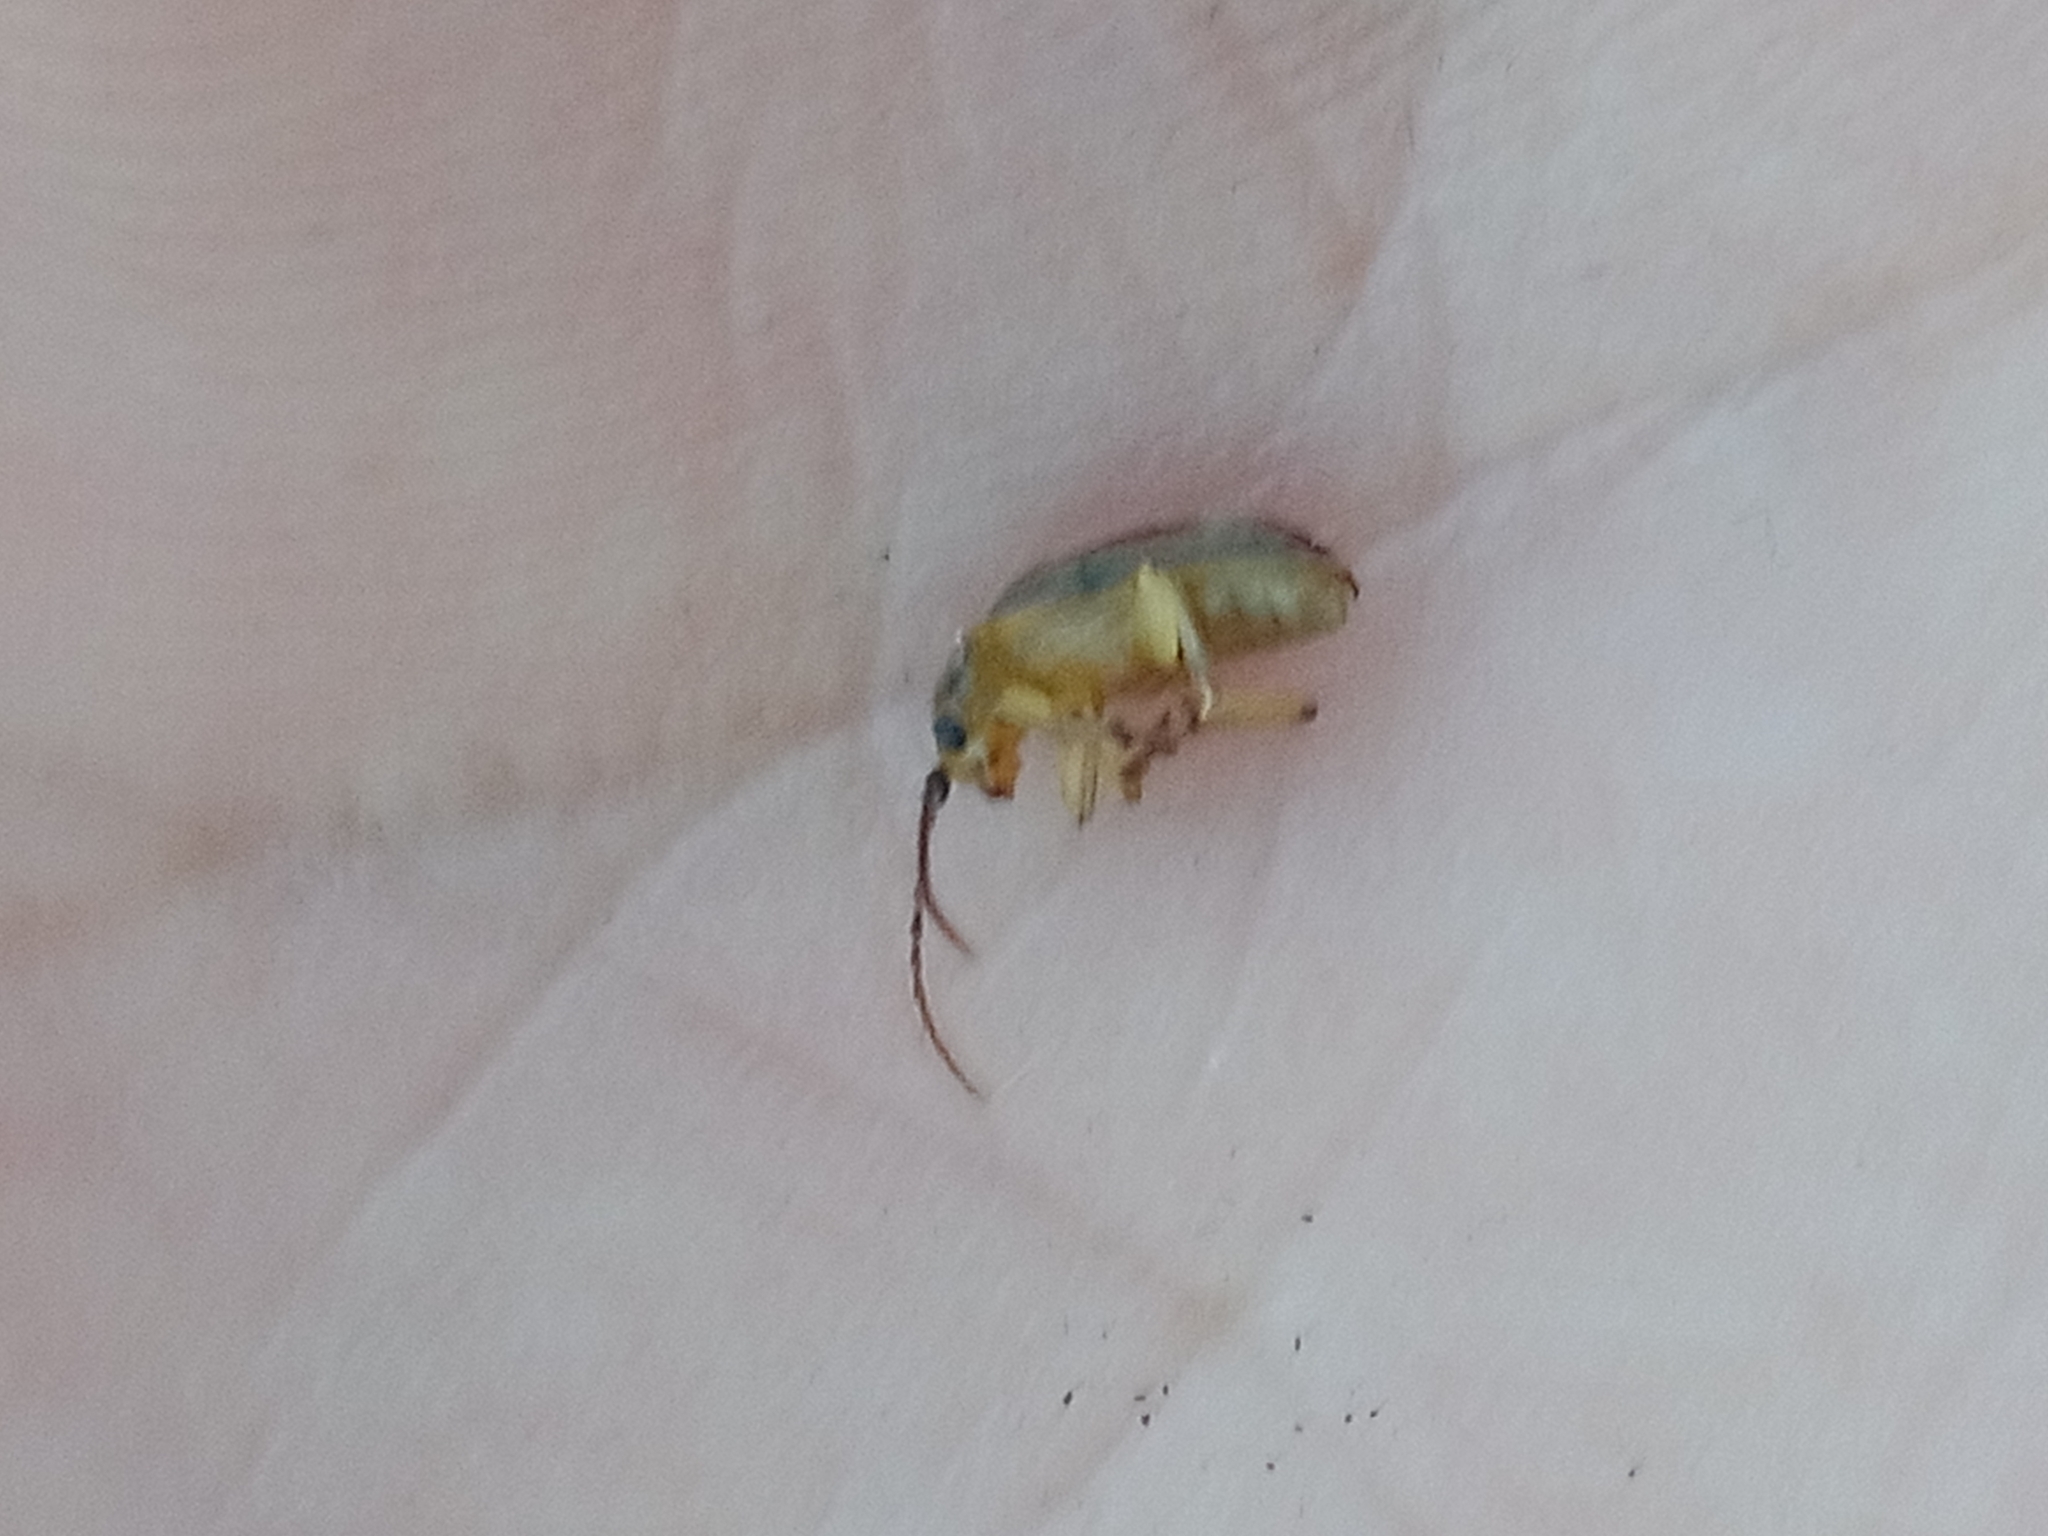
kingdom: Animalia
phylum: Arthropoda
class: Insecta
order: Coleoptera
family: Chrysomelidae
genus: Pyrrhalta
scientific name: Pyrrhalta viburni
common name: Guelder-rose leaf beetle
